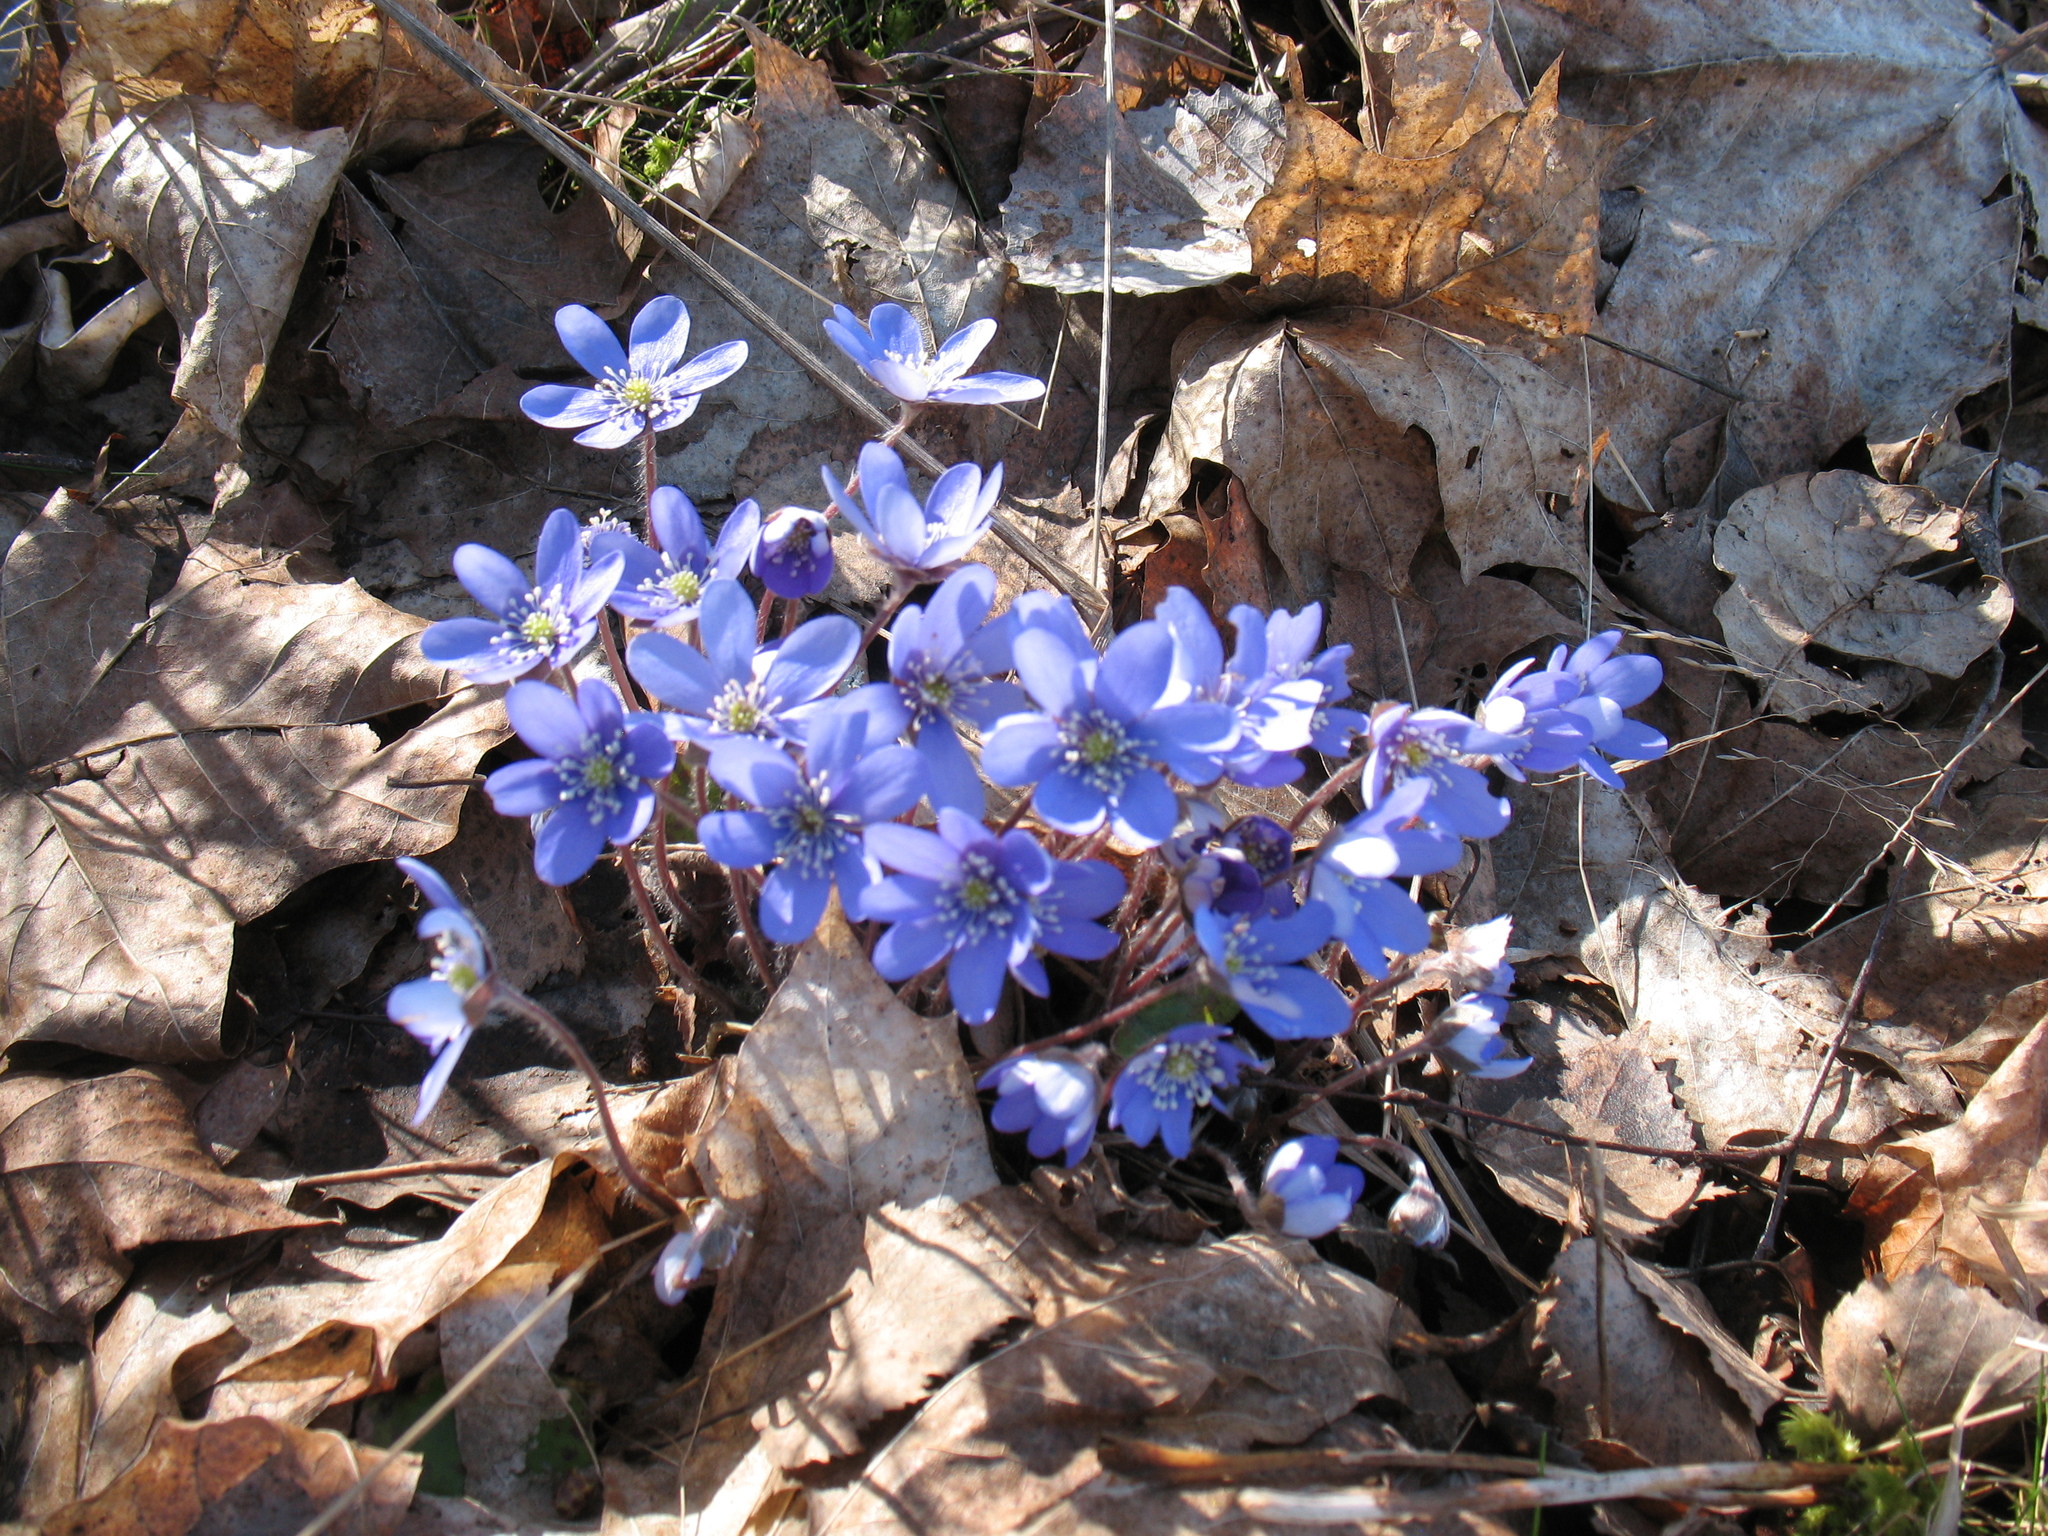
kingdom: Plantae
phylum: Tracheophyta
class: Magnoliopsida
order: Ranunculales
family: Ranunculaceae
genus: Hepatica
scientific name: Hepatica nobilis
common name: Liverleaf
